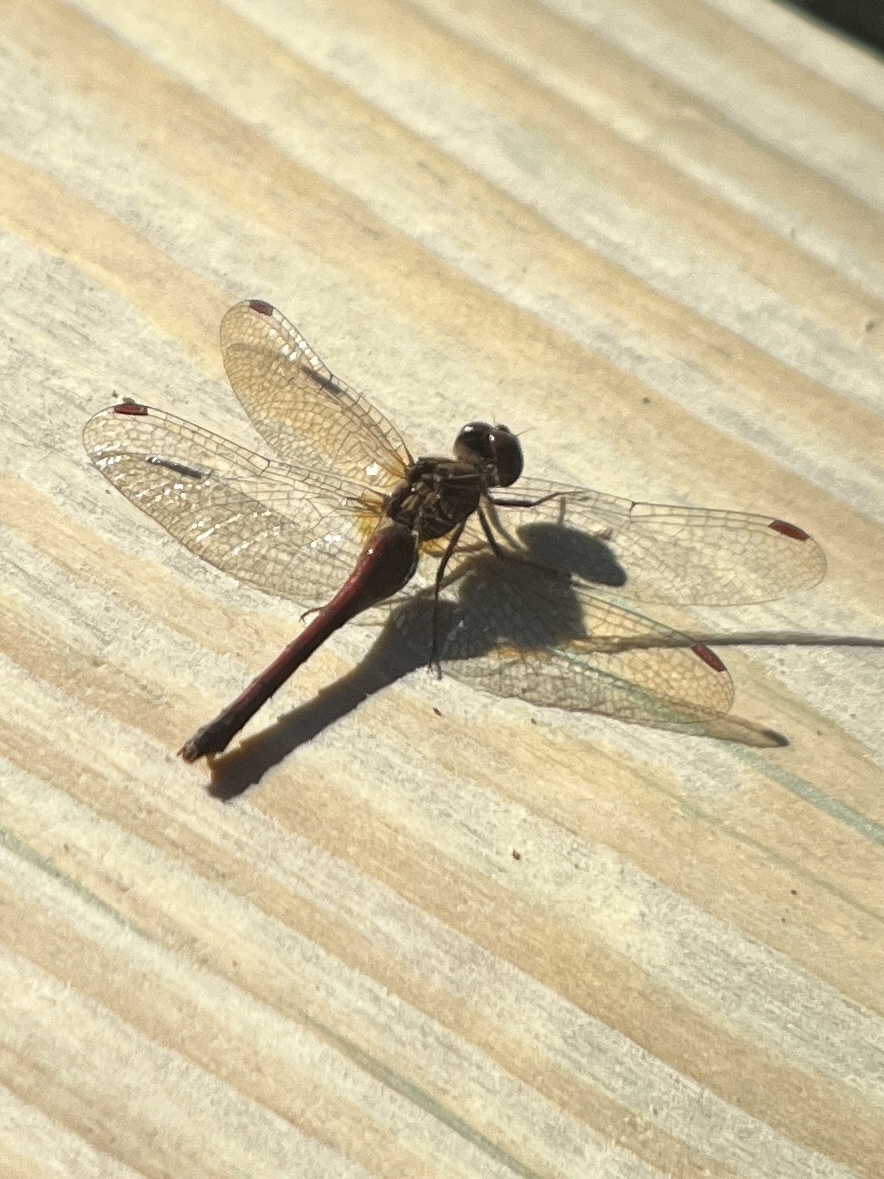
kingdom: Animalia
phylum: Arthropoda
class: Insecta
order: Odonata
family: Libellulidae
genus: Sympetrum
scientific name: Sympetrum vicinum
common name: Autumn meadowhawk
